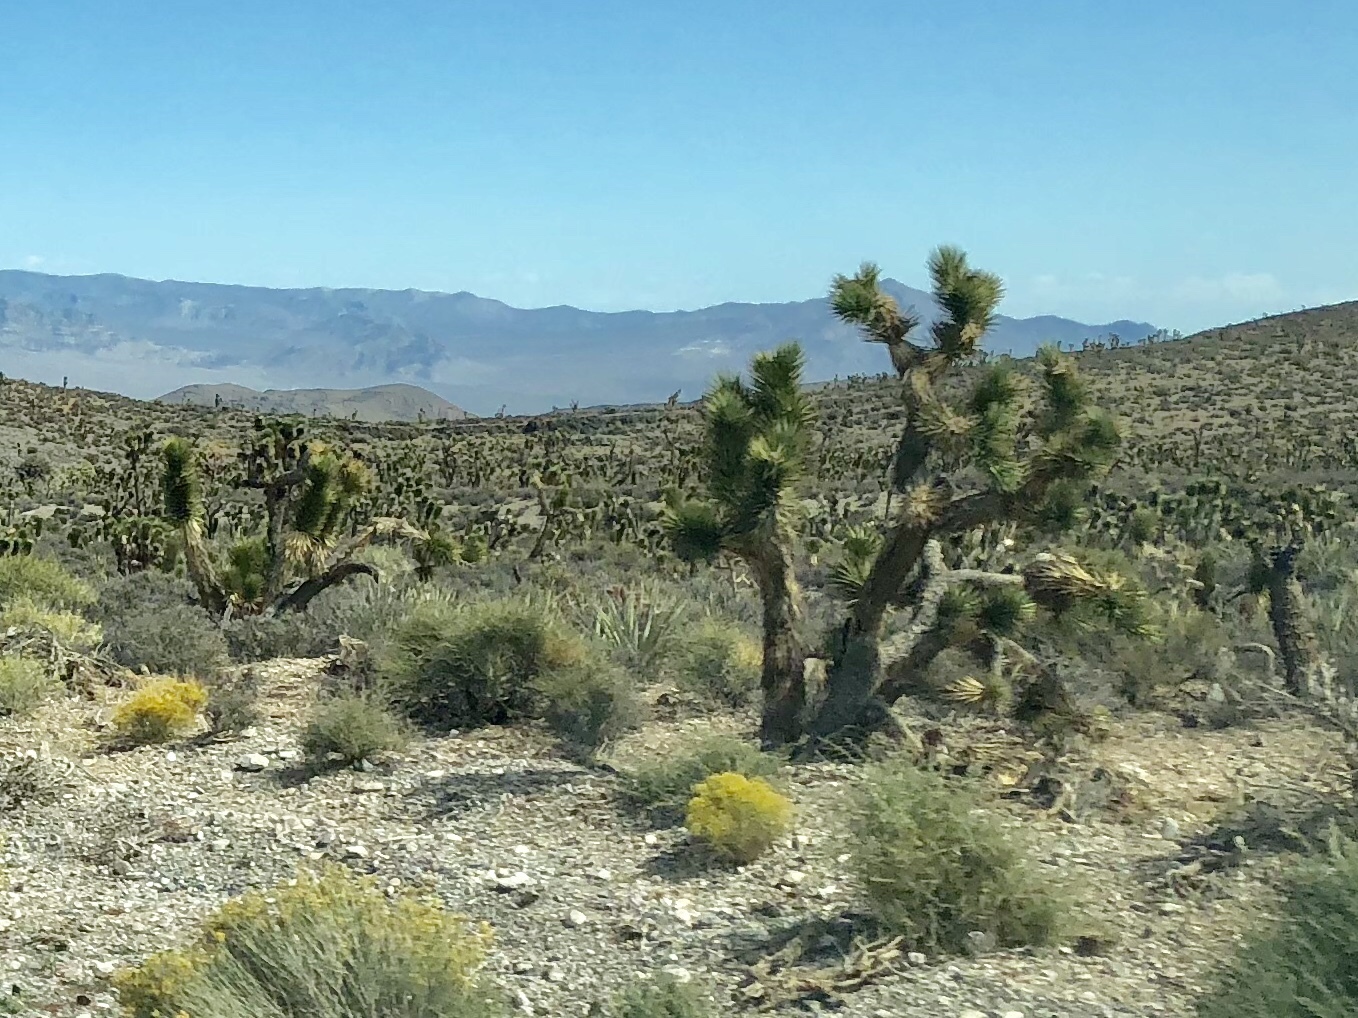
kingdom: Plantae
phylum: Tracheophyta
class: Liliopsida
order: Asparagales
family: Asparagaceae
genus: Yucca
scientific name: Yucca brevifolia
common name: Joshua tree
